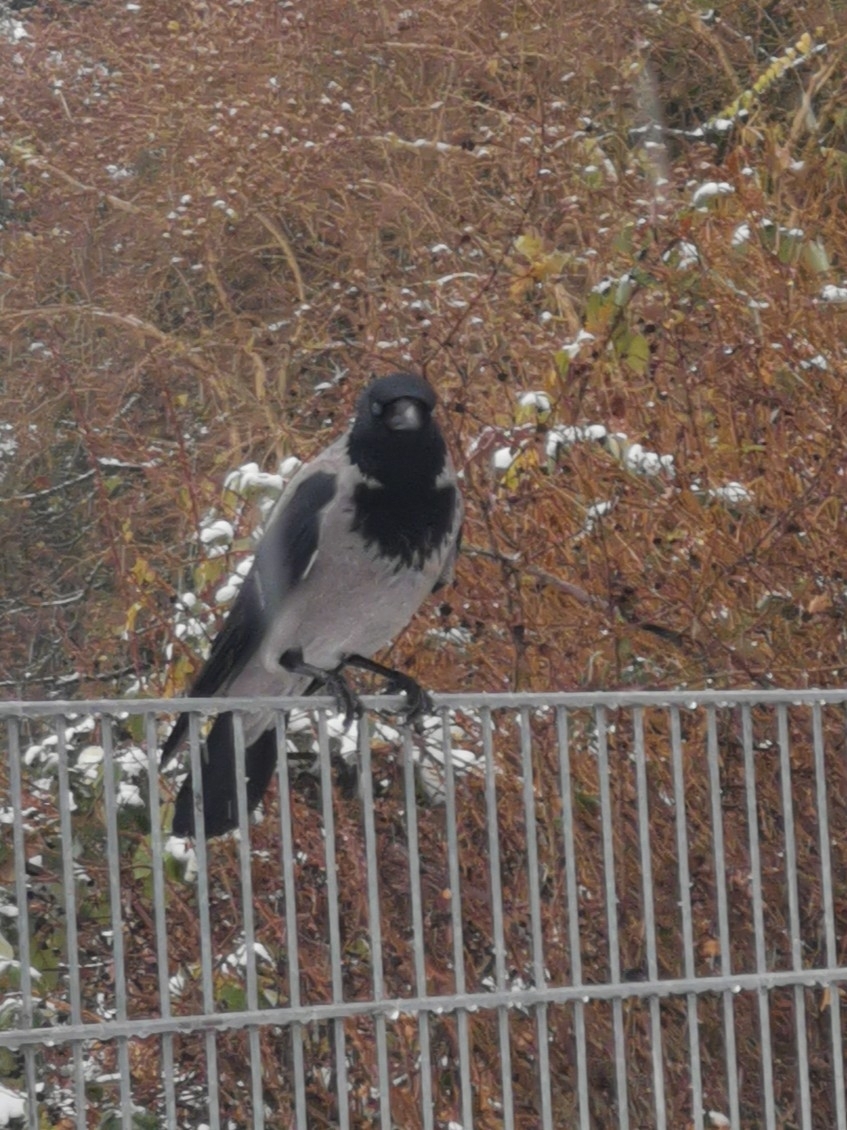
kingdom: Animalia
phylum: Chordata
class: Aves
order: Passeriformes
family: Corvidae
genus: Corvus
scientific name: Corvus cornix
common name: Hooded crow
